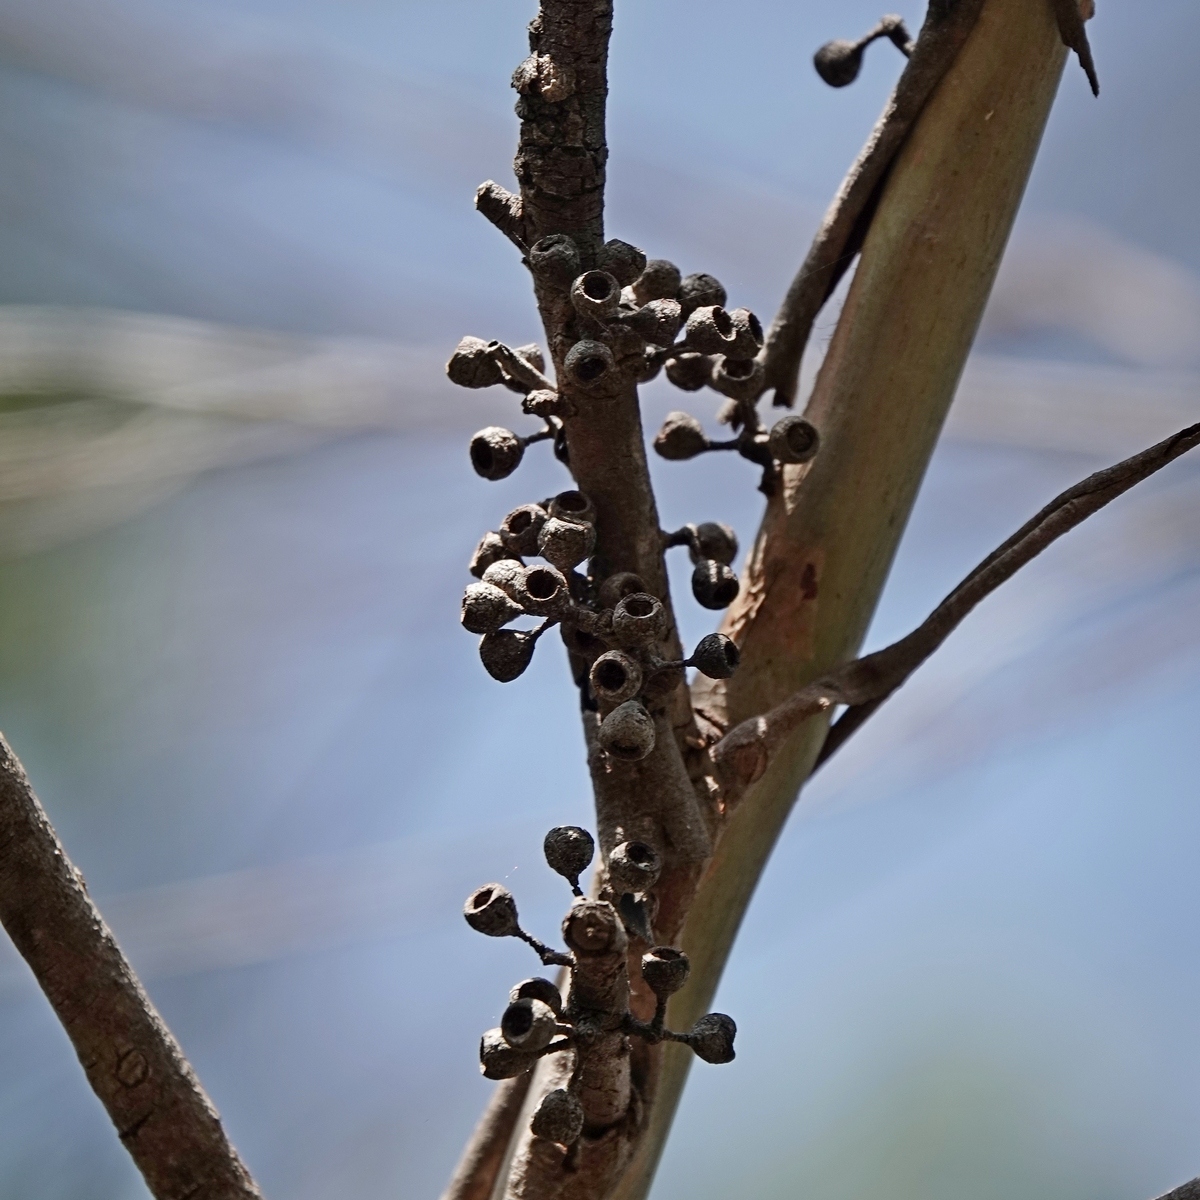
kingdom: Plantae
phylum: Tracheophyta
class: Magnoliopsida
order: Myrtales
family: Myrtaceae
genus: Eucalyptus
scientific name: Eucalyptus elata
